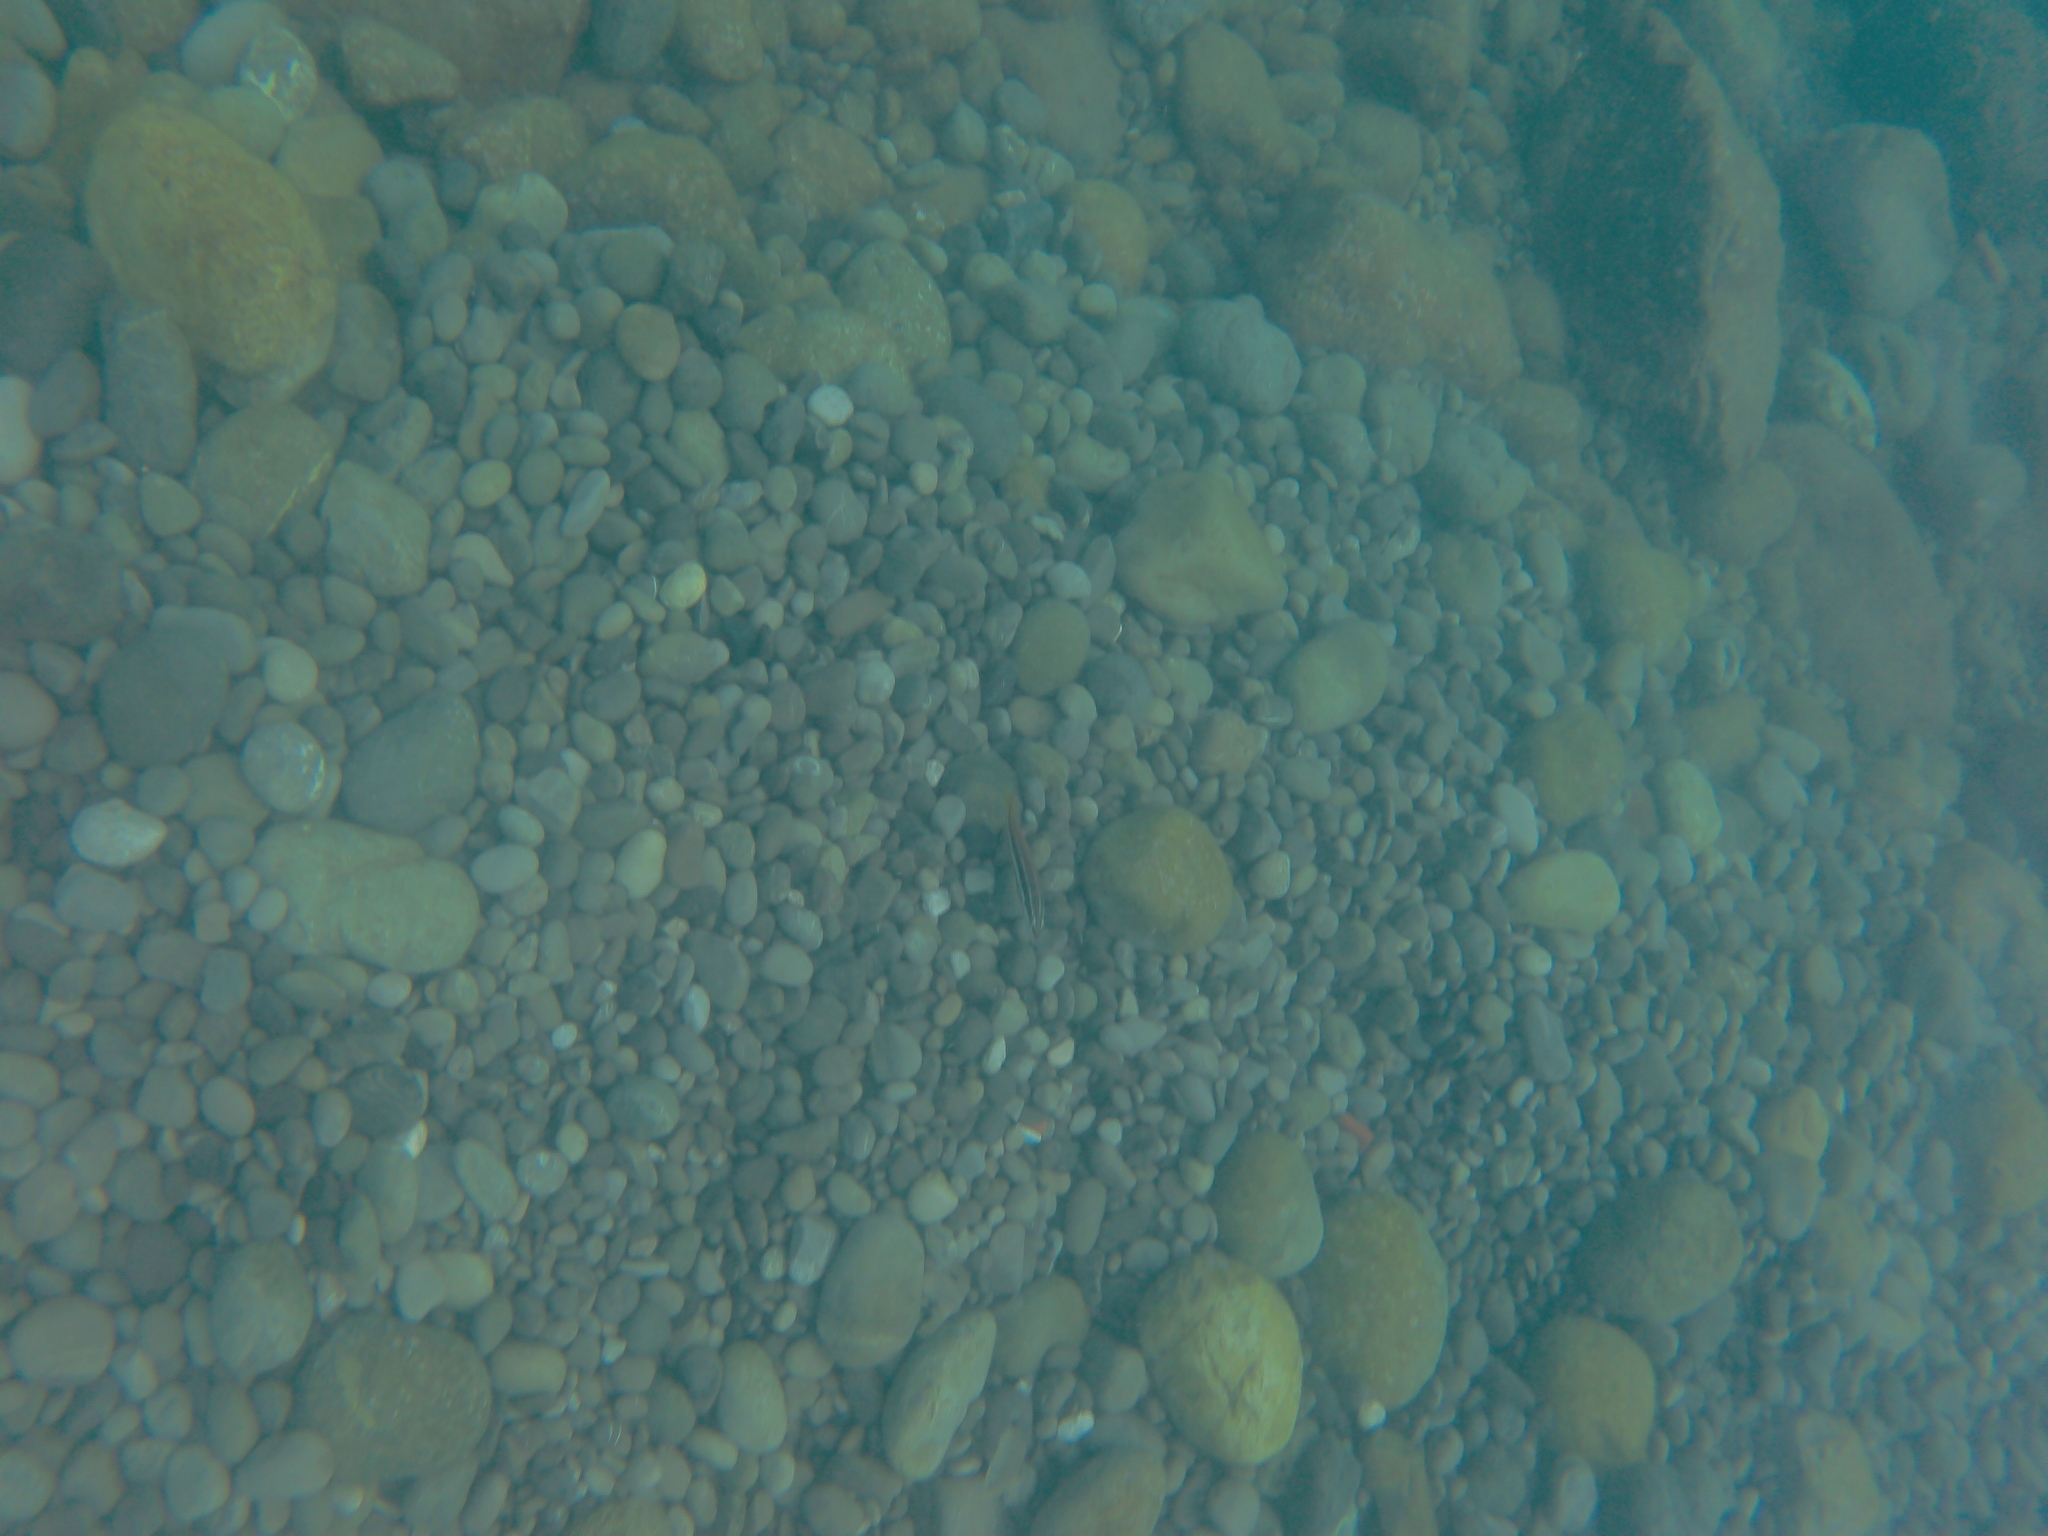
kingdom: Animalia
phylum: Chordata
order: Perciformes
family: Labridae
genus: Coris
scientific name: Coris julis
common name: Rainbow wrasse
